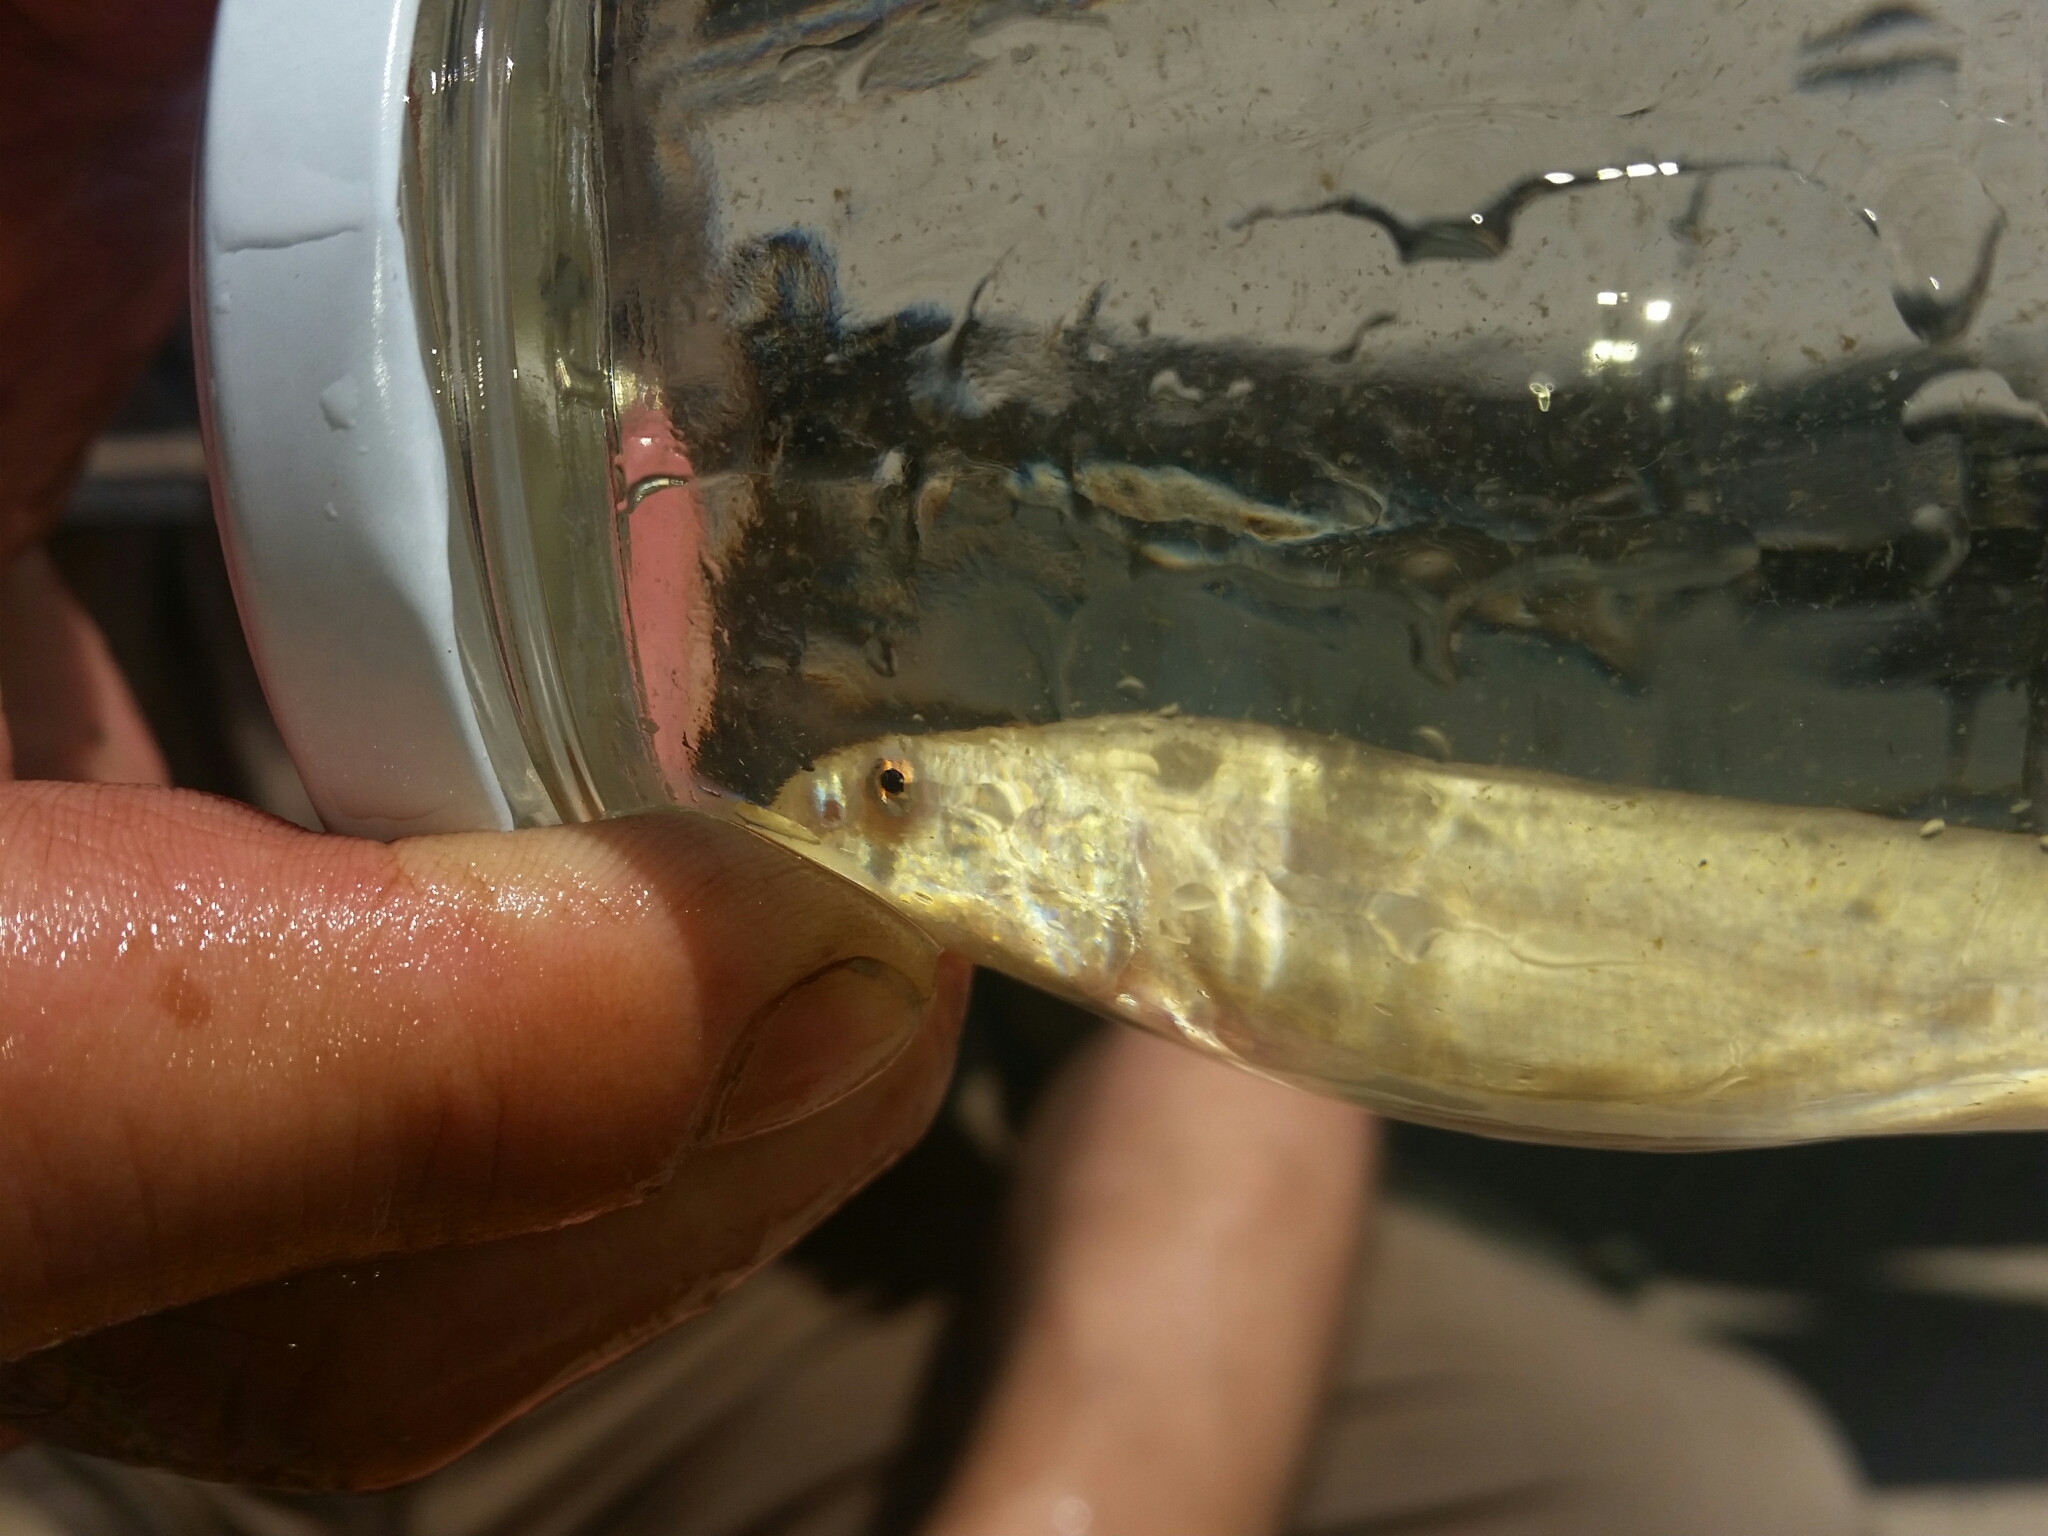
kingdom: Animalia
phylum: Chordata
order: Cypriniformes
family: Cobitidae
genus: Misgurnus
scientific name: Misgurnus anguillicaudatus
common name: Oriental weatherfish
